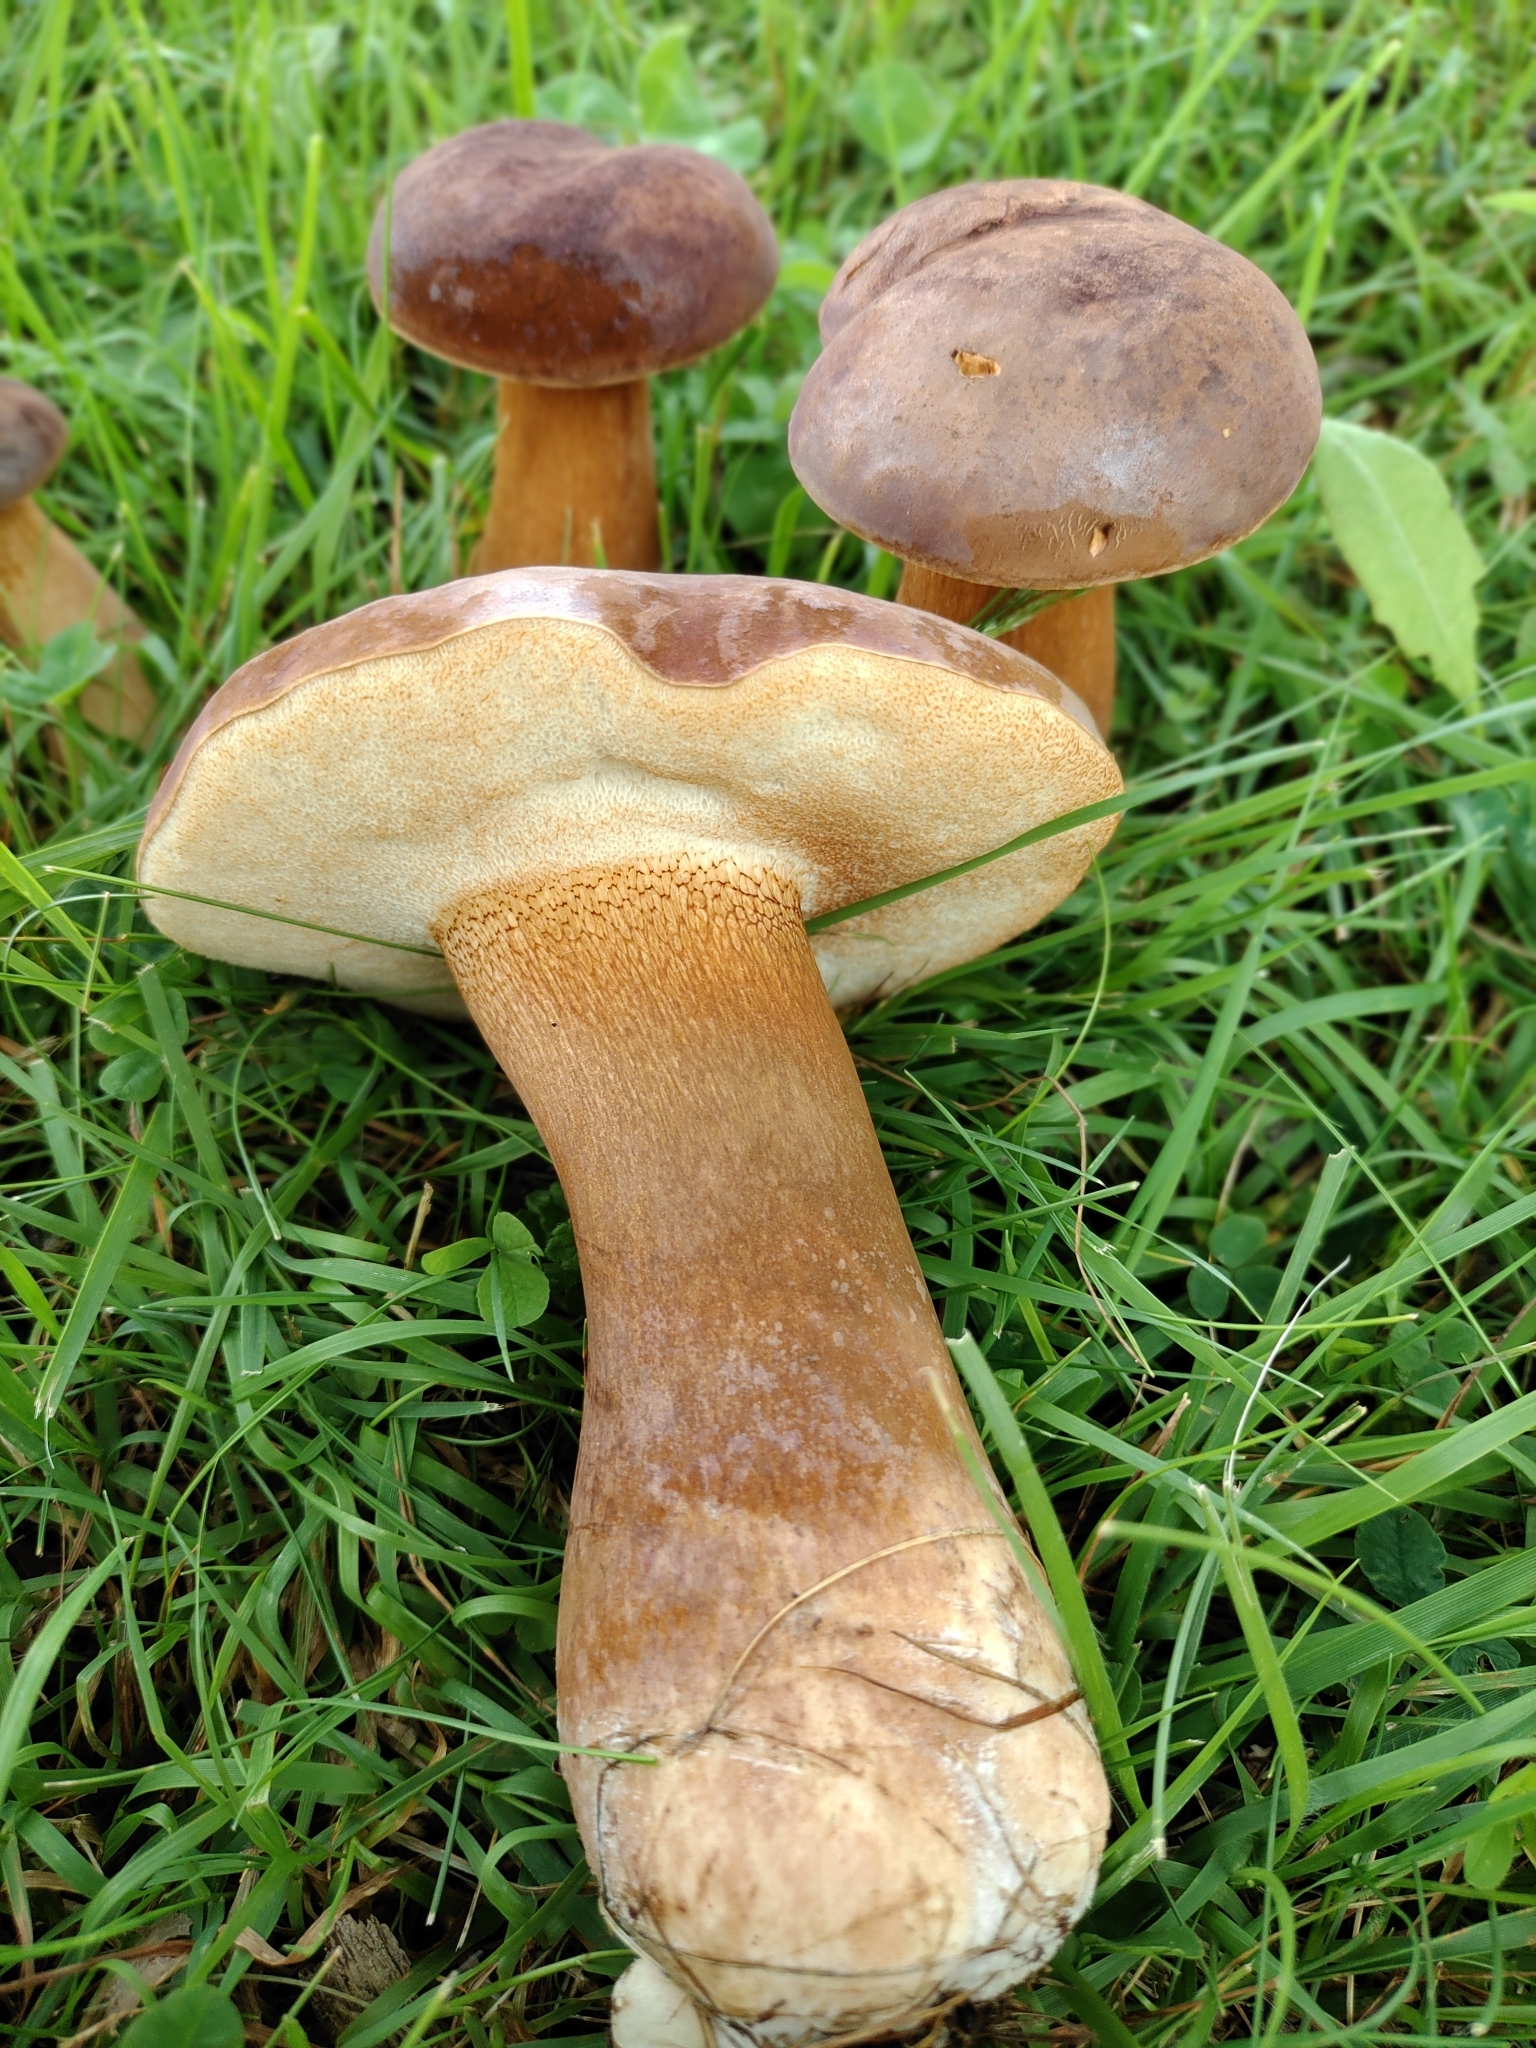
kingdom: Fungi
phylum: Basidiomycota
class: Agaricomycetes
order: Boletales
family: Boletaceae
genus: Tylopilus
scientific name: Tylopilus ferrugineus
